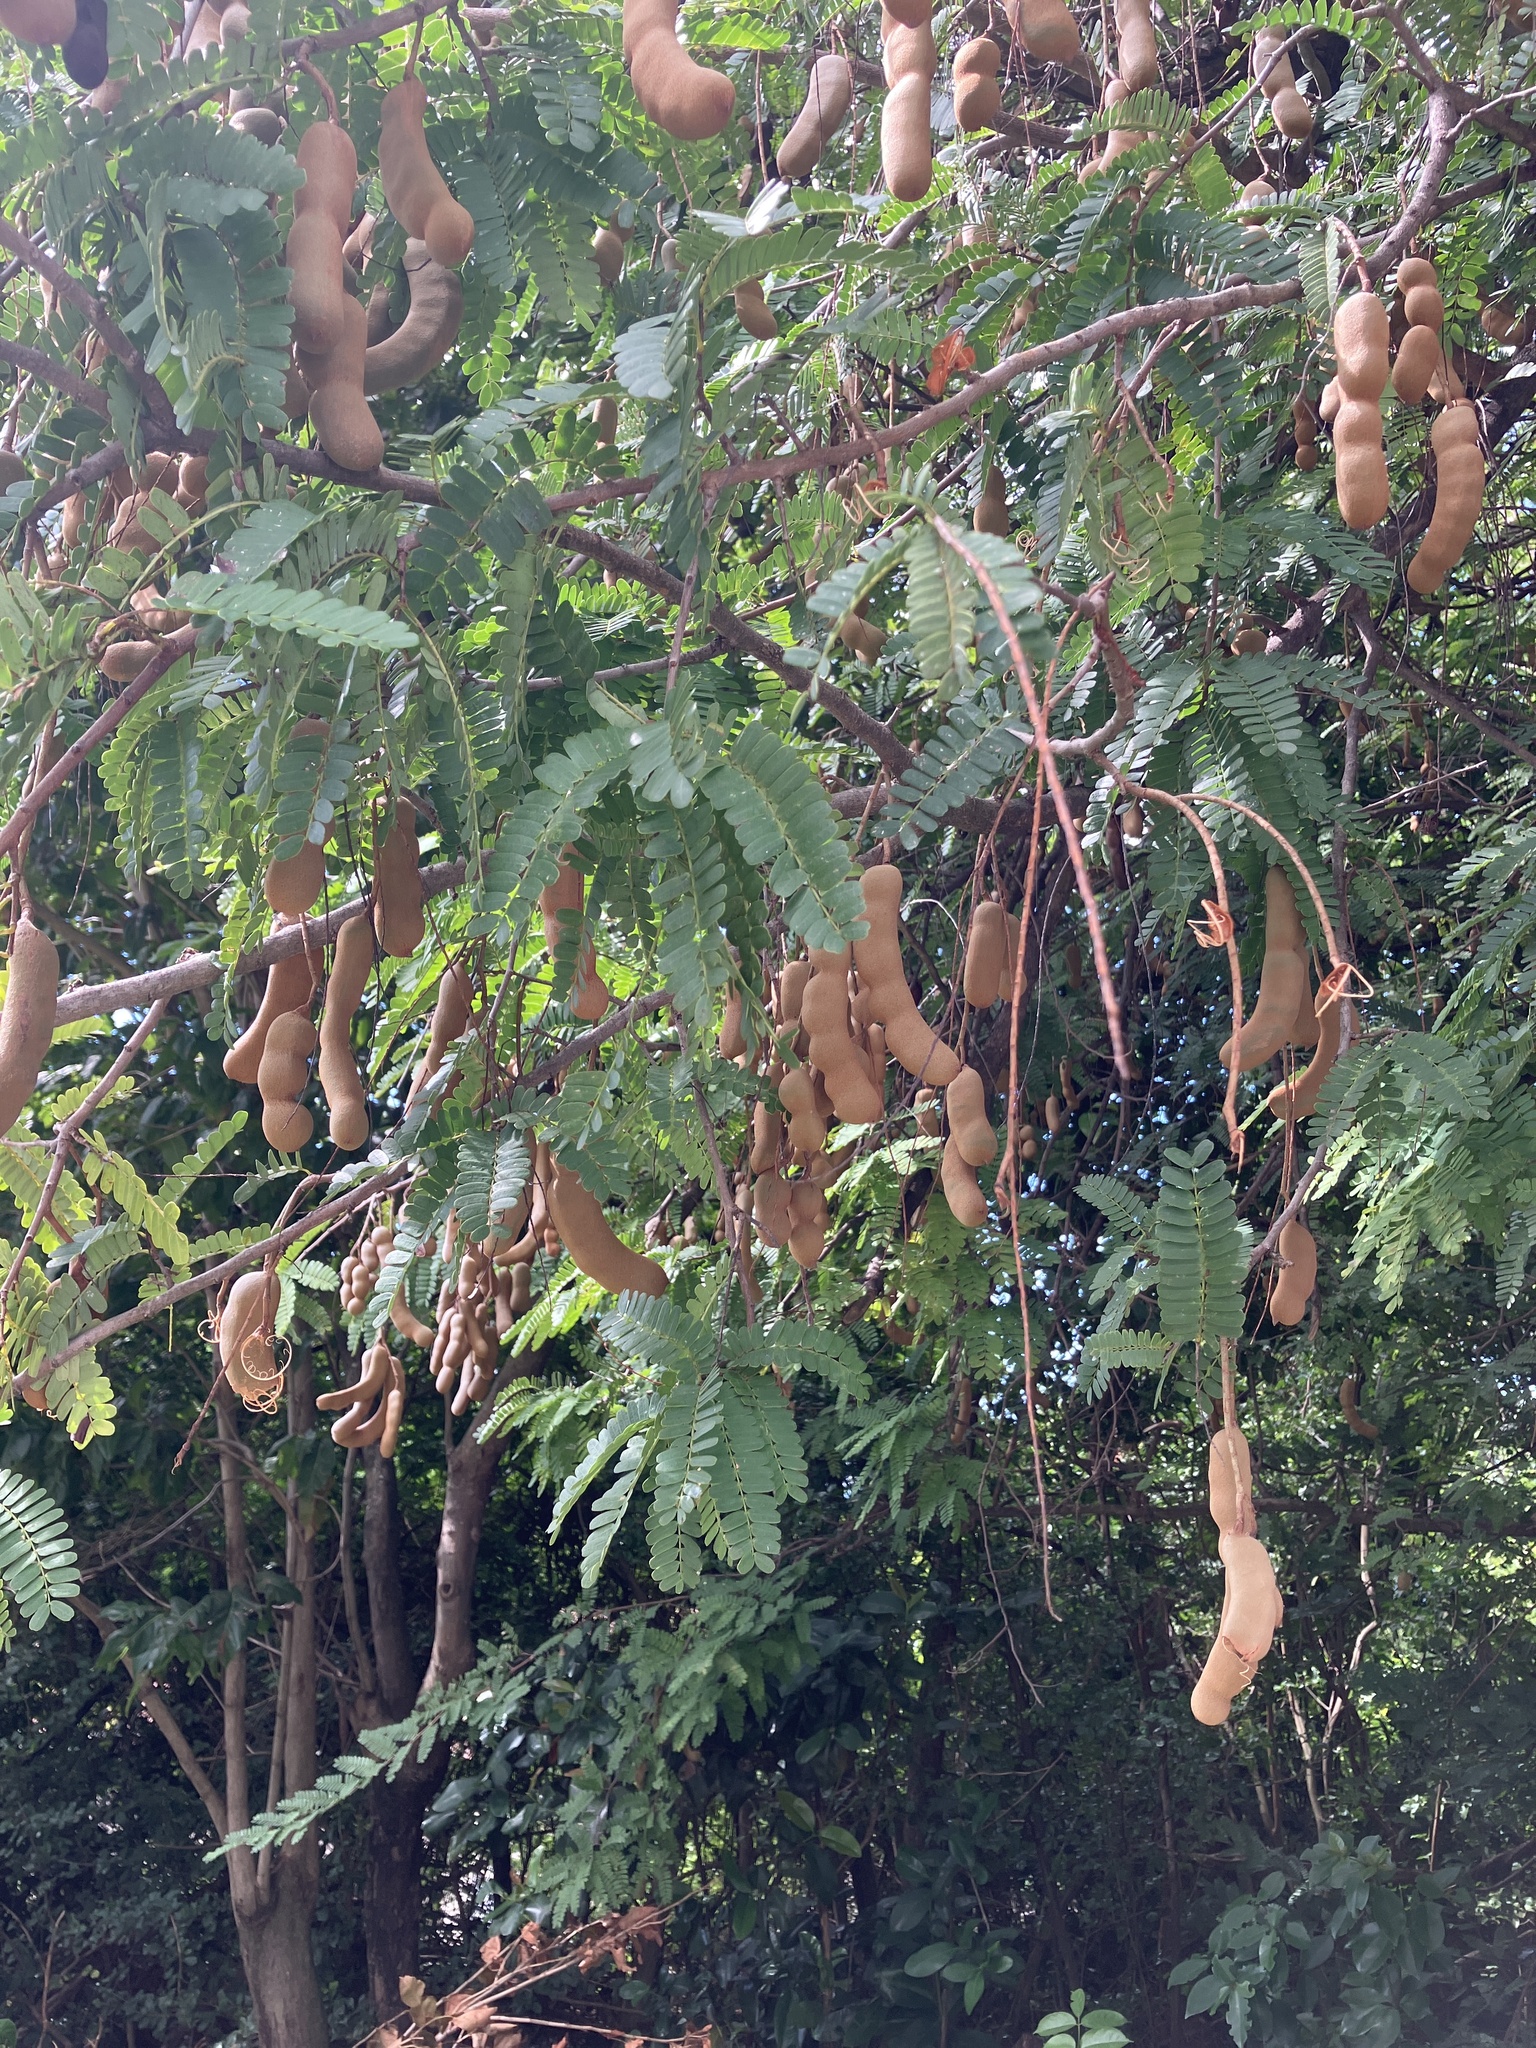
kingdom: Plantae
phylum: Tracheophyta
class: Magnoliopsida
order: Fabales
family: Fabaceae
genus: Tamarindus
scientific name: Tamarindus indica
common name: Tamarind
